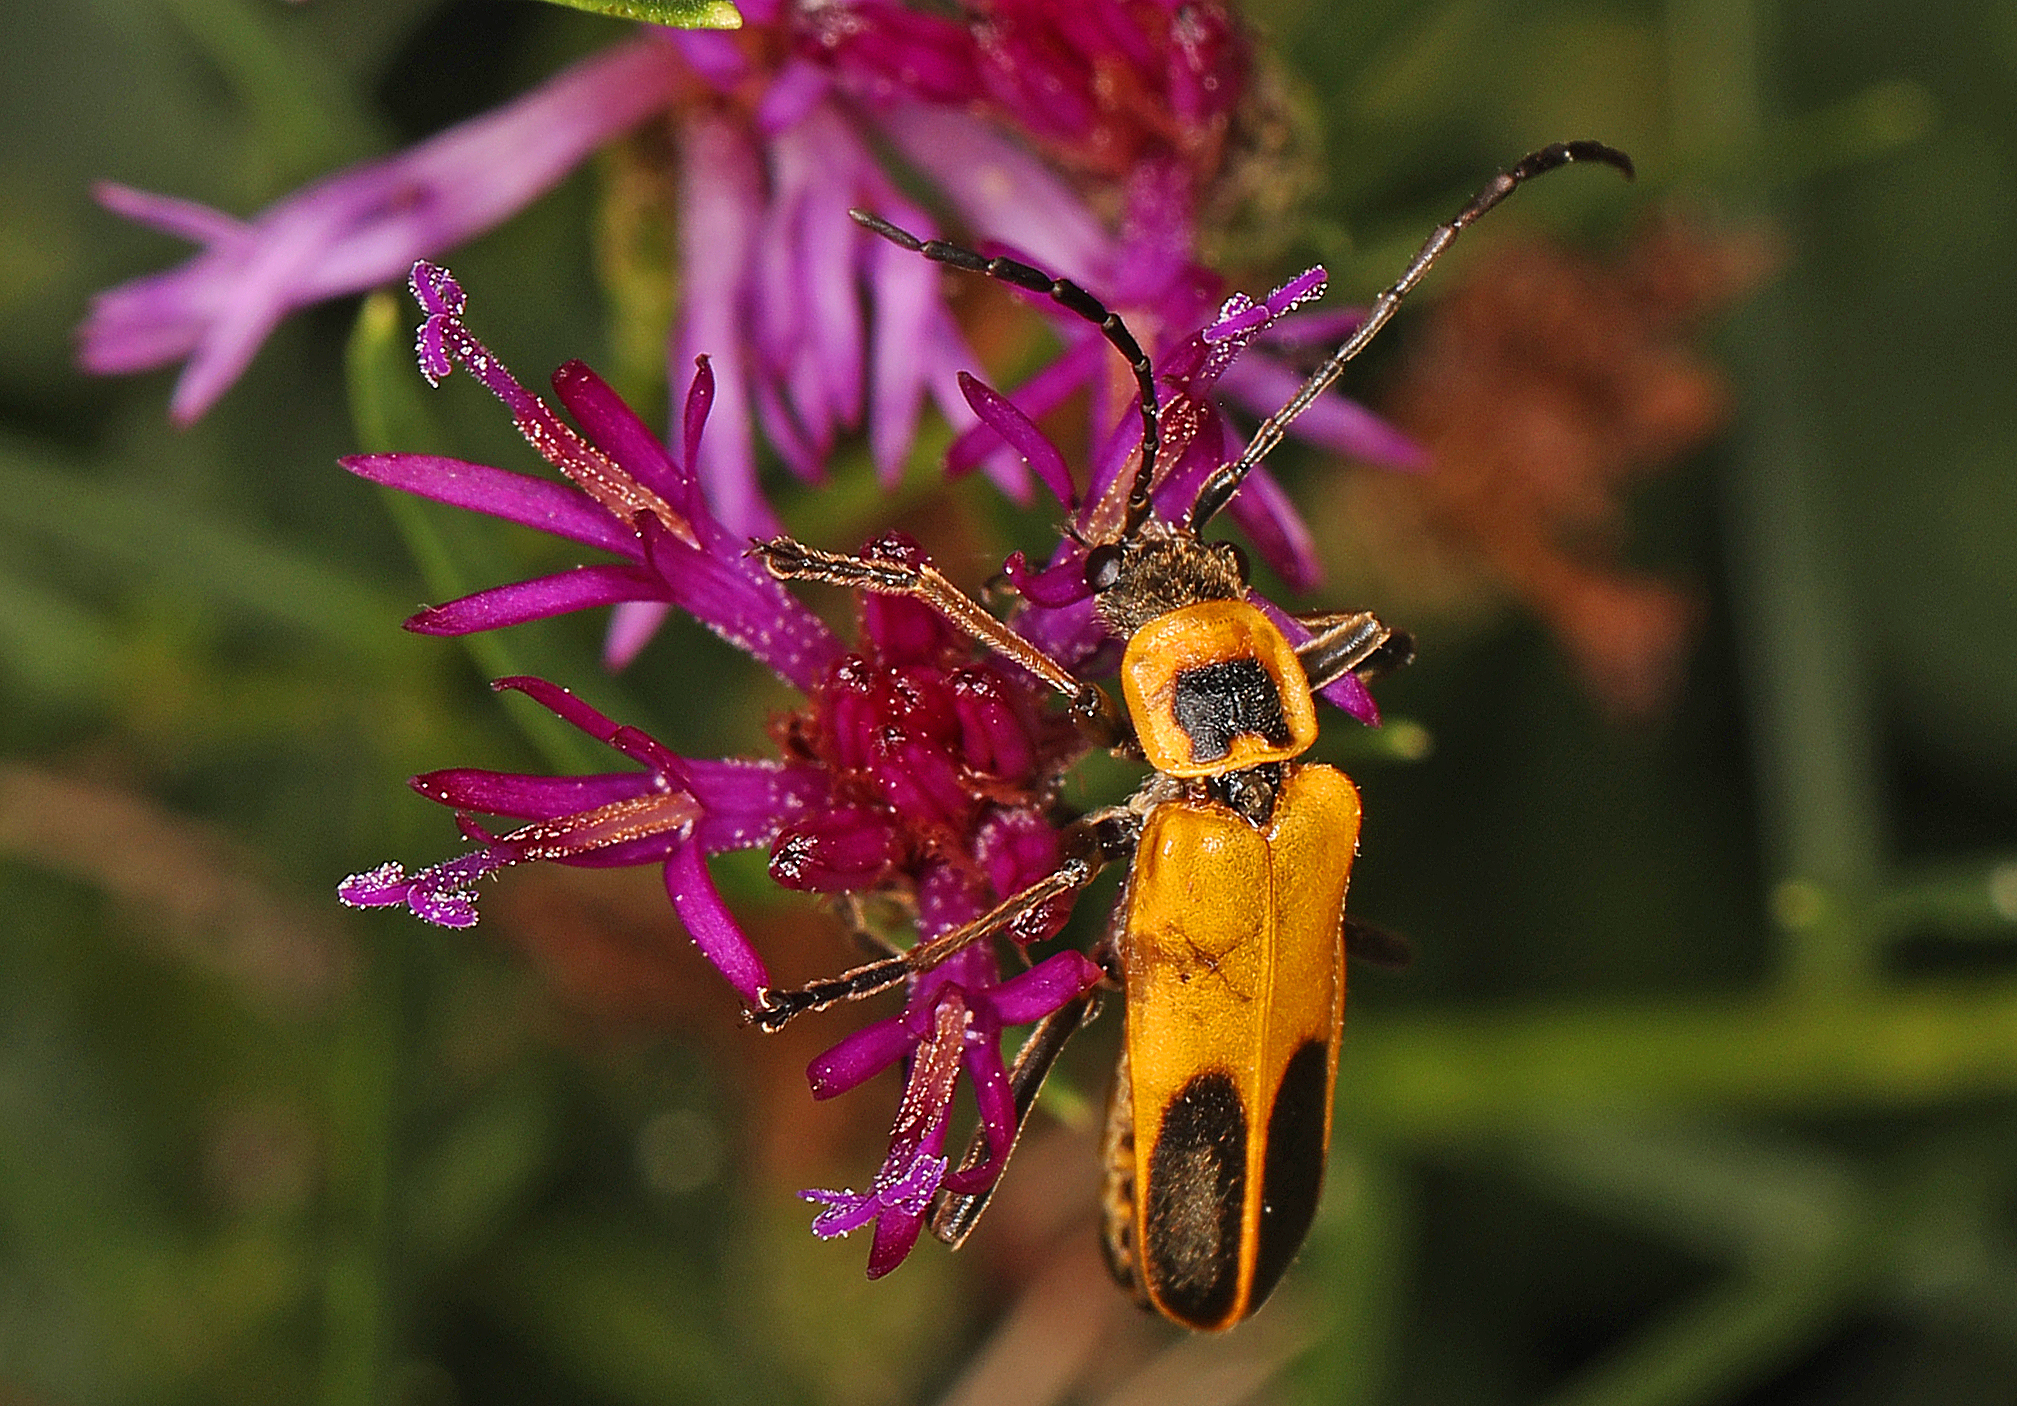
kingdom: Animalia
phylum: Arthropoda
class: Insecta
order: Coleoptera
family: Cantharidae
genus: Chauliognathus
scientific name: Chauliognathus pensylvanicus
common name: Goldenrod soldier beetle
